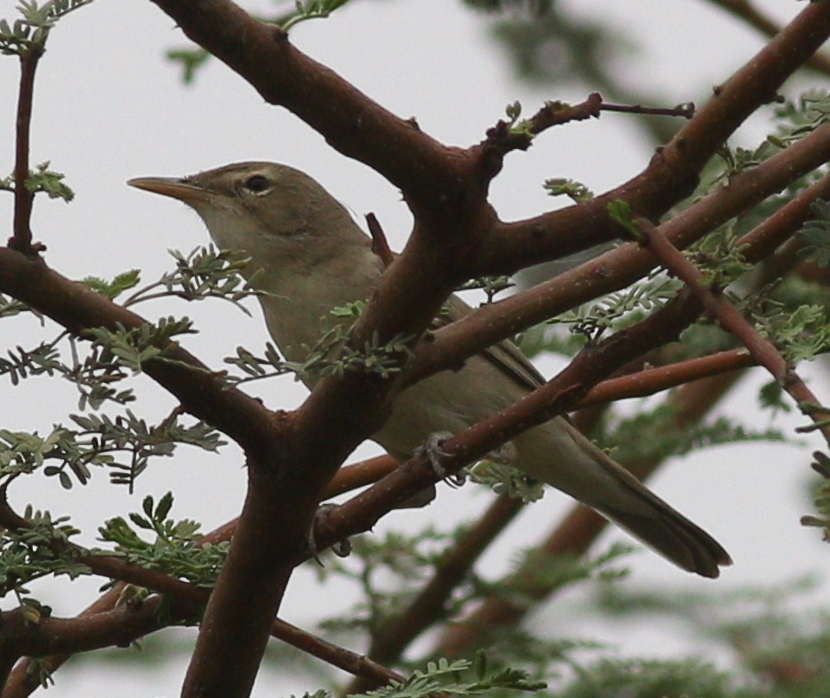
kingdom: Animalia
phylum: Chordata
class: Aves
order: Passeriformes
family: Acrocephalidae
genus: Iduna
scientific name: Iduna pallida
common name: Eastern olivaceous warbler
